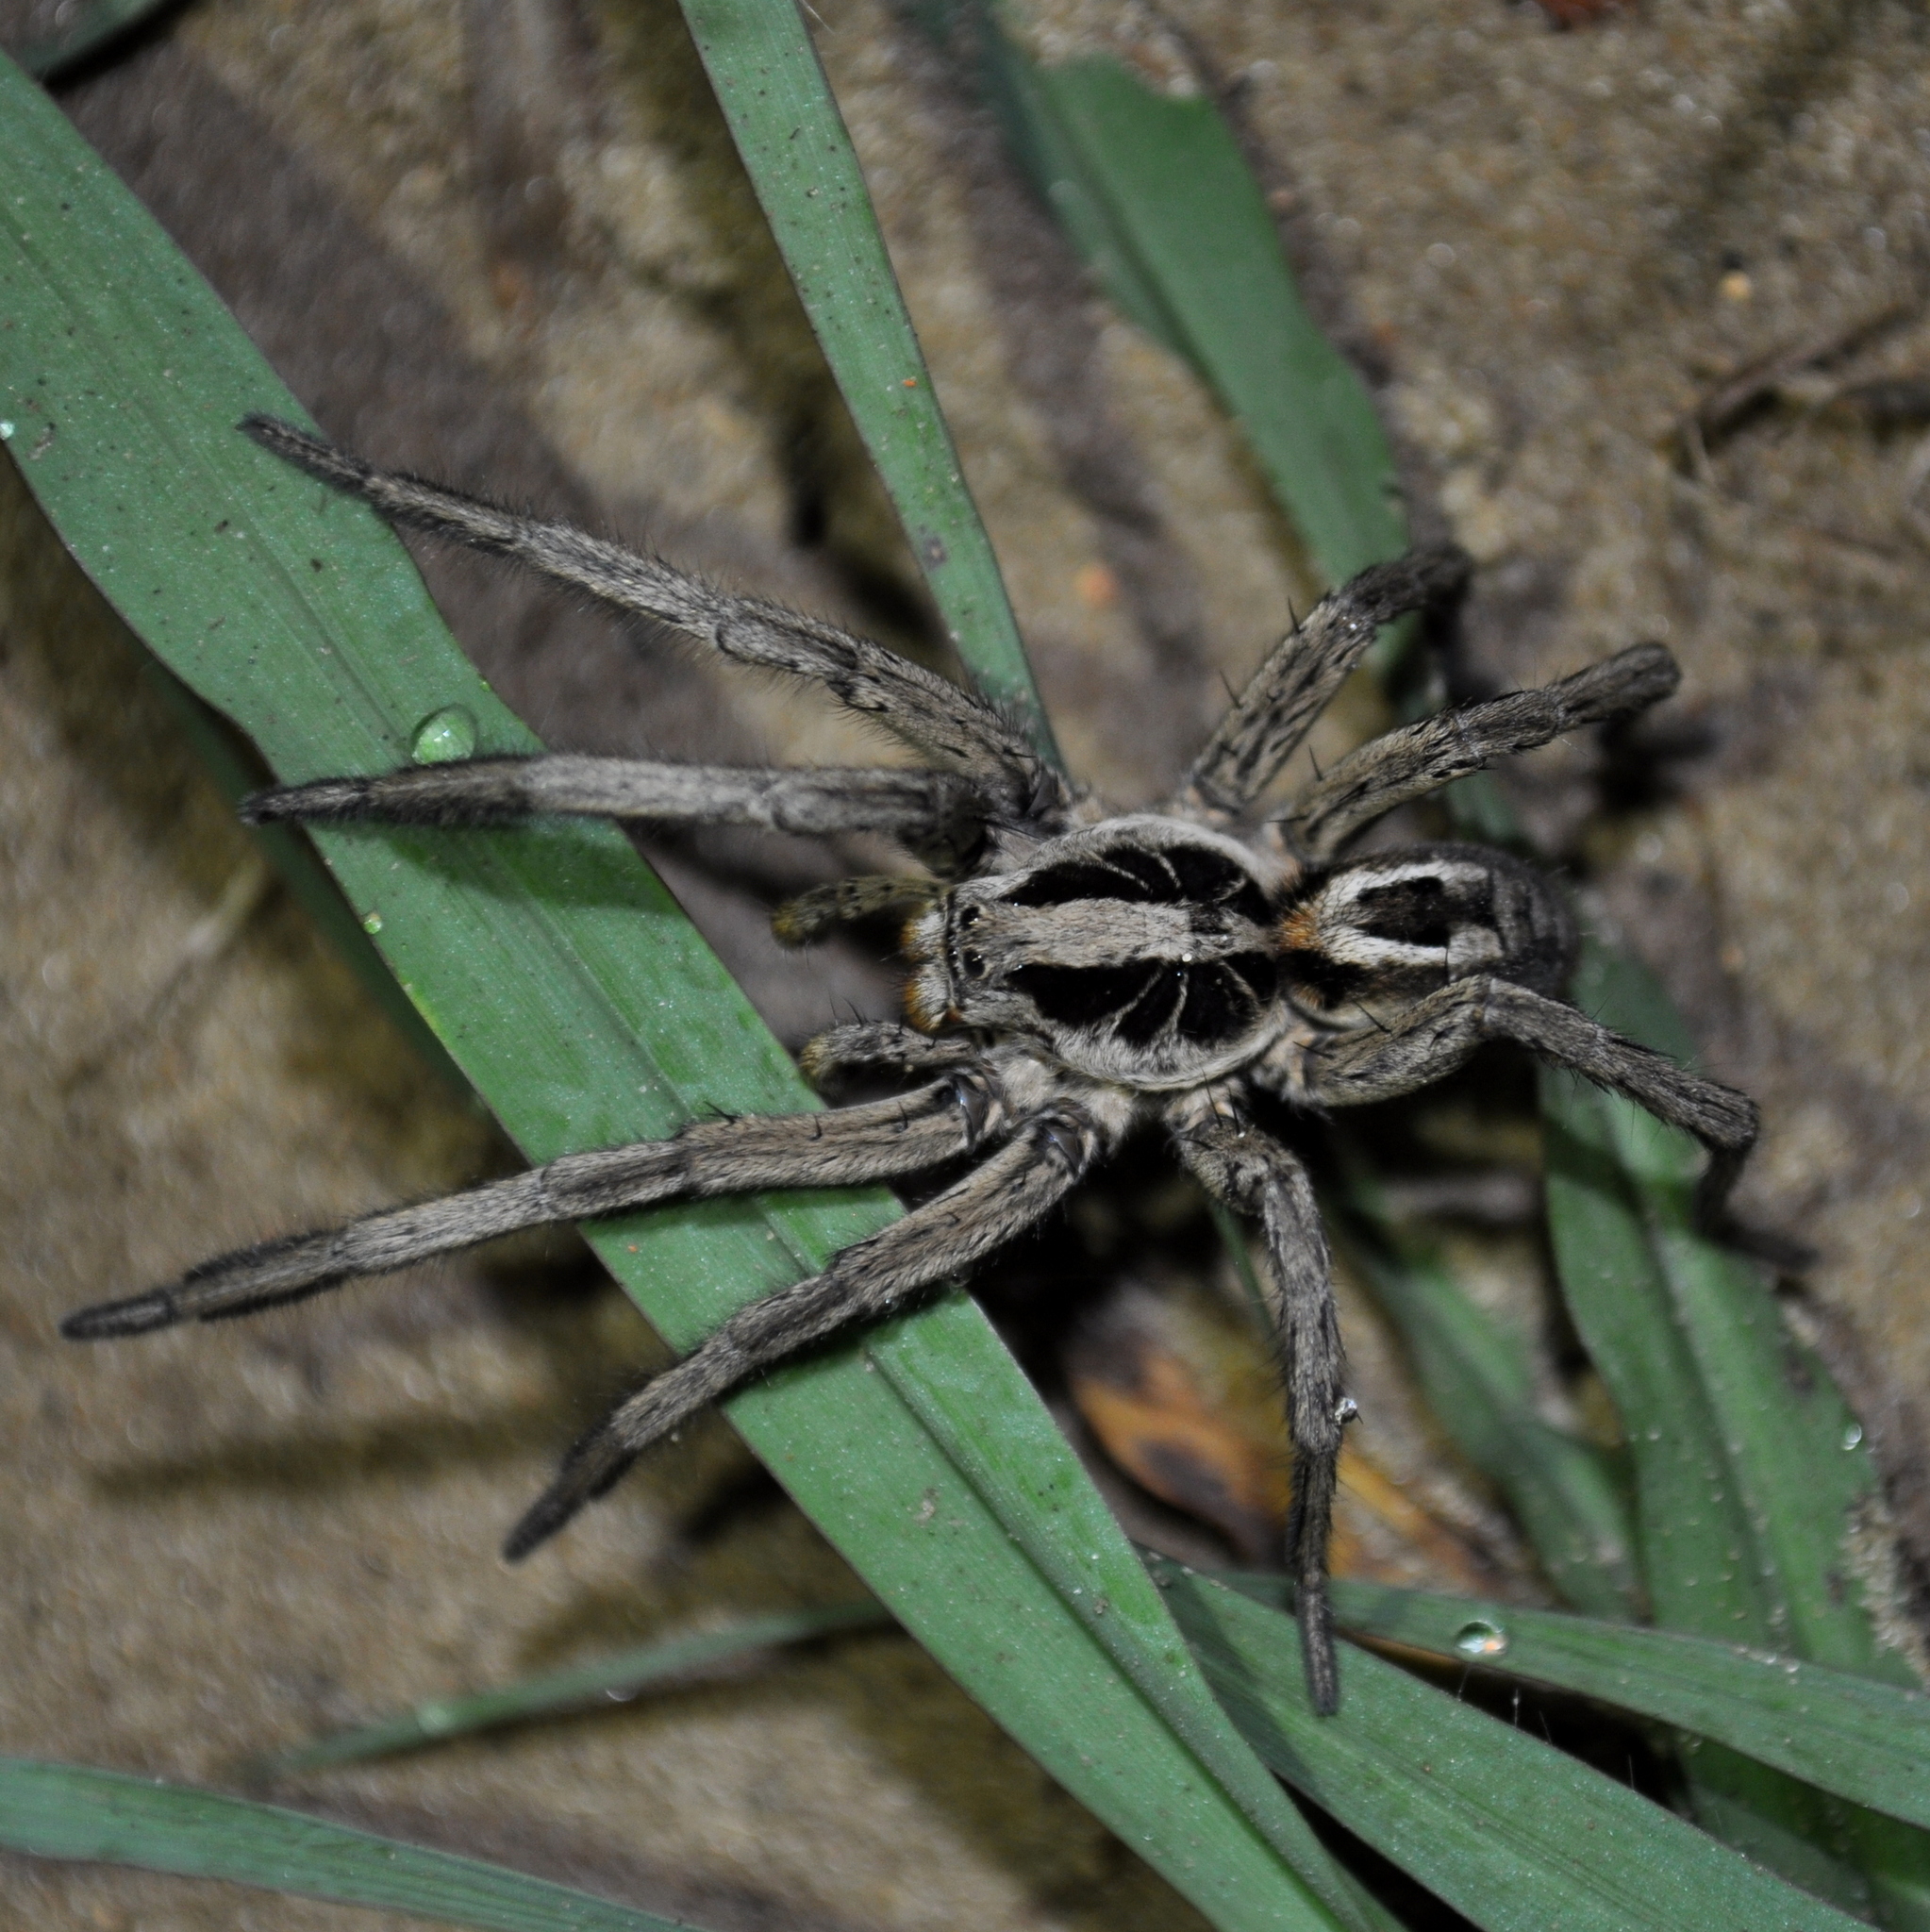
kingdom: Animalia
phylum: Arthropoda
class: Arachnida
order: Araneae
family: Lycosidae
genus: Lycosa
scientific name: Lycosa erythrognatha
